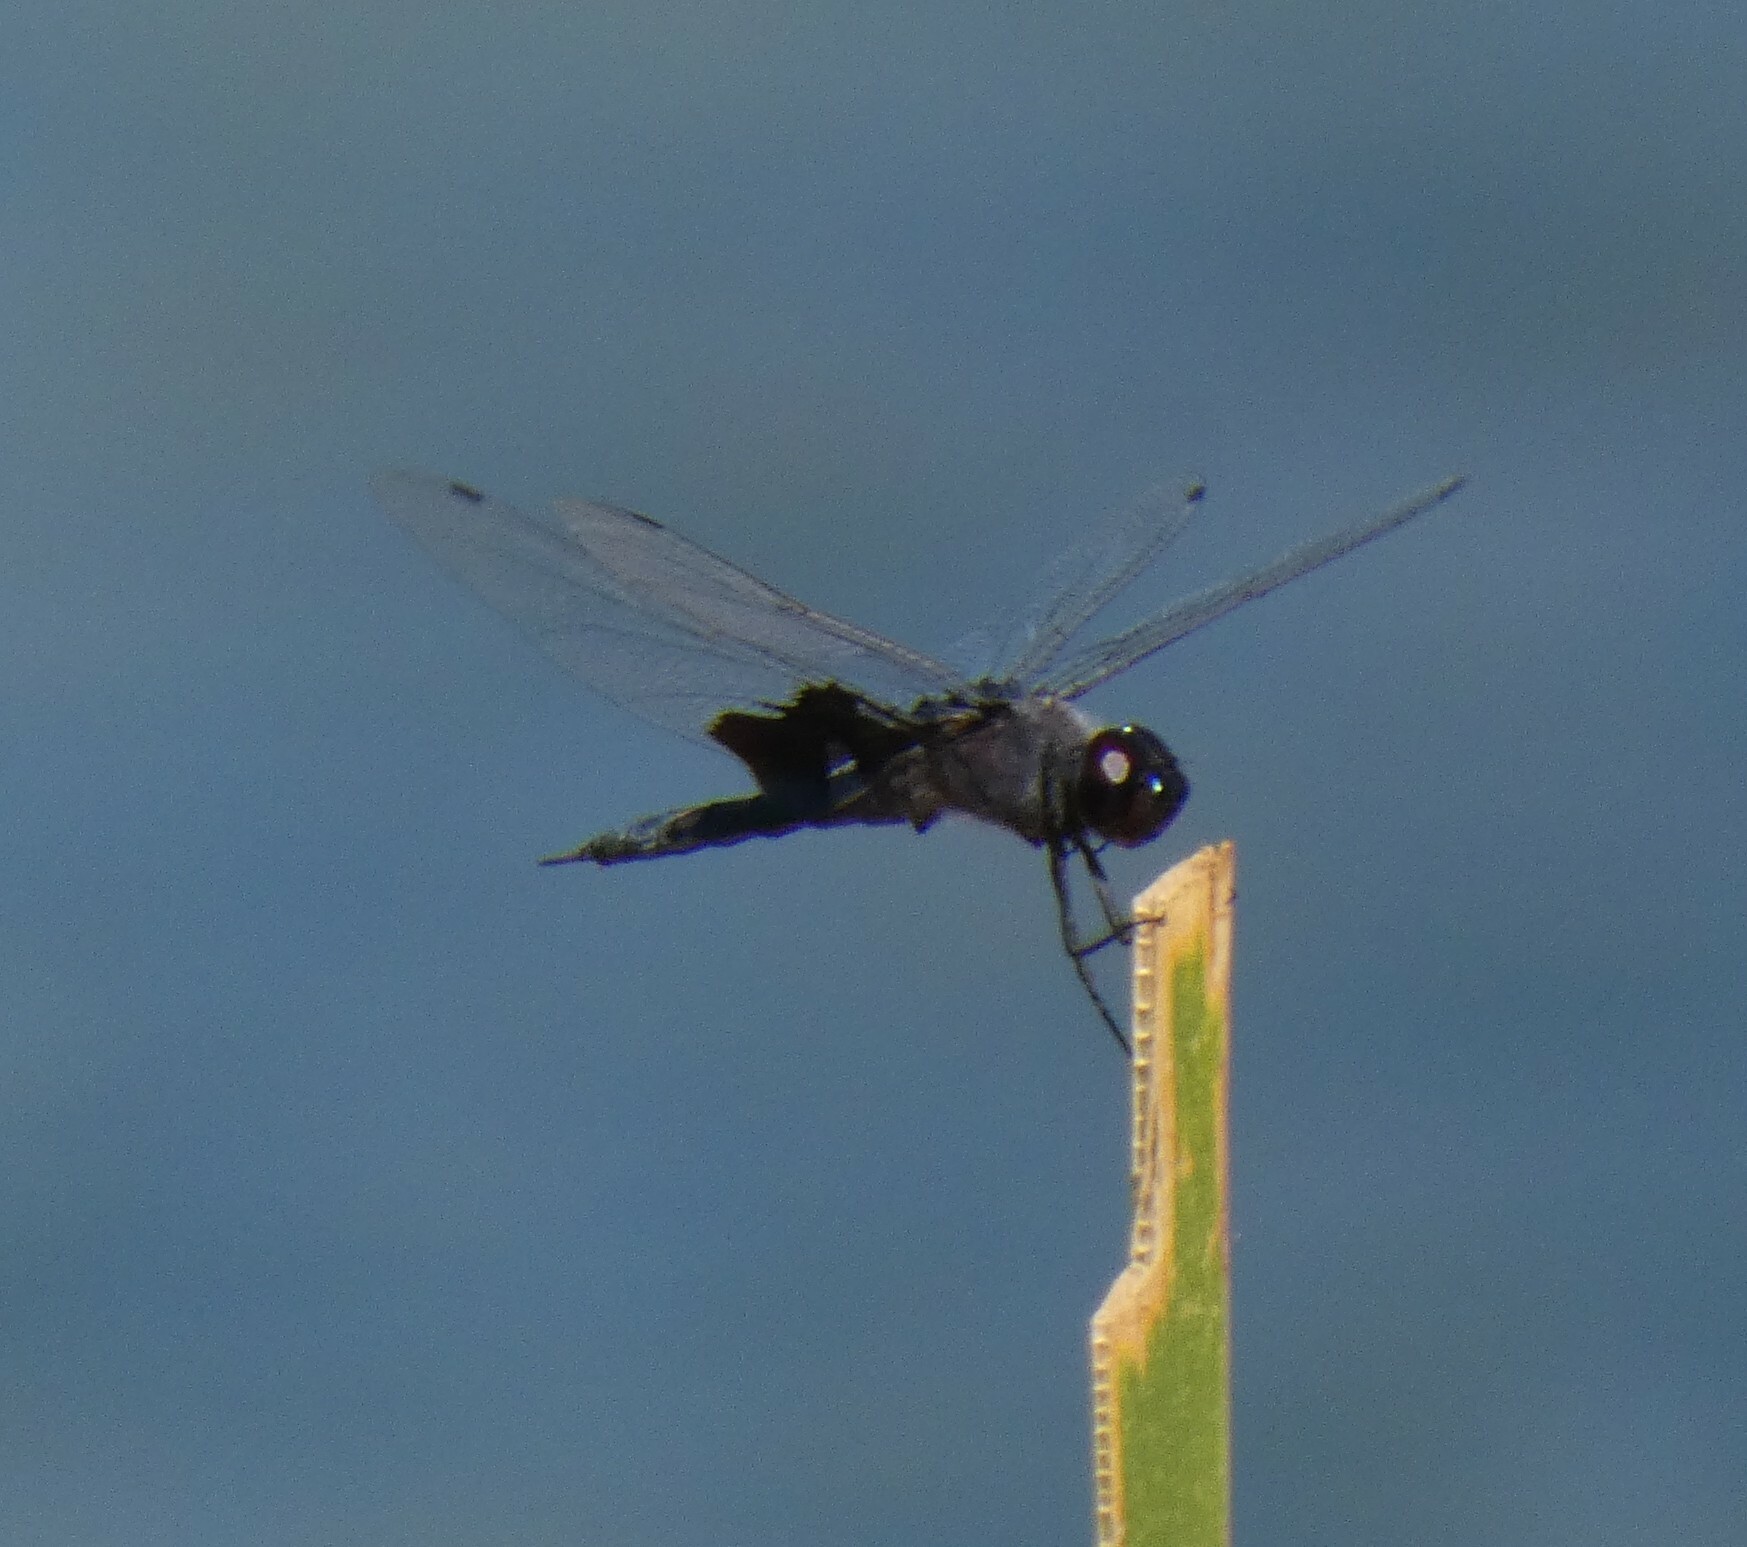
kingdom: Animalia
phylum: Arthropoda
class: Insecta
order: Odonata
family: Libellulidae
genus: Tramea
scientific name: Tramea lacerata
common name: Black saddlebags
